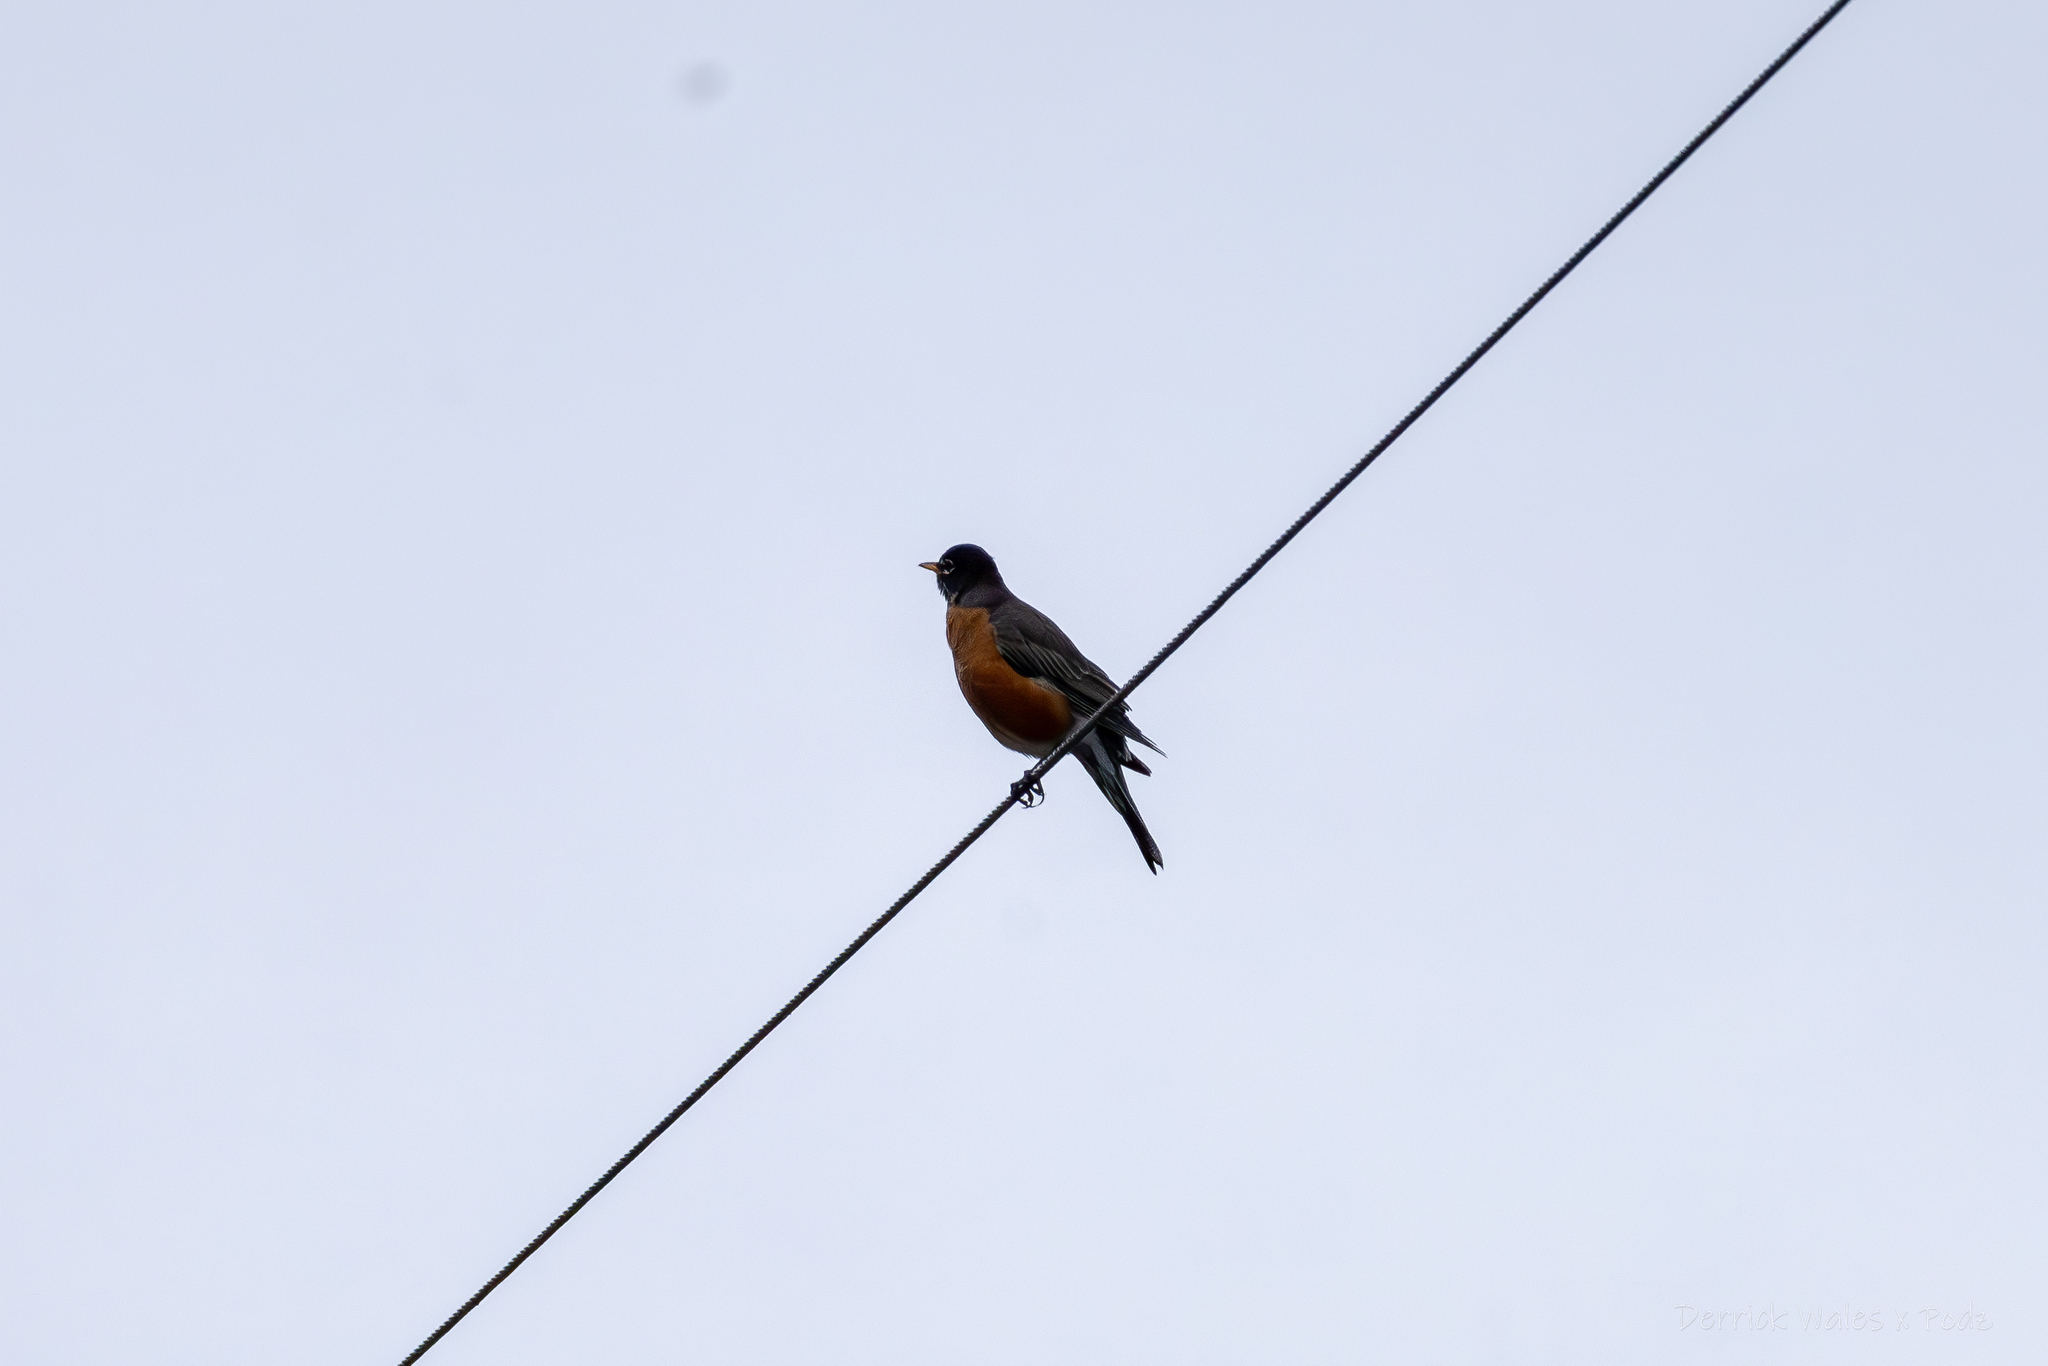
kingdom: Animalia
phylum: Chordata
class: Aves
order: Passeriformes
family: Turdidae
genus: Turdus
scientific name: Turdus migratorius
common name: American robin
